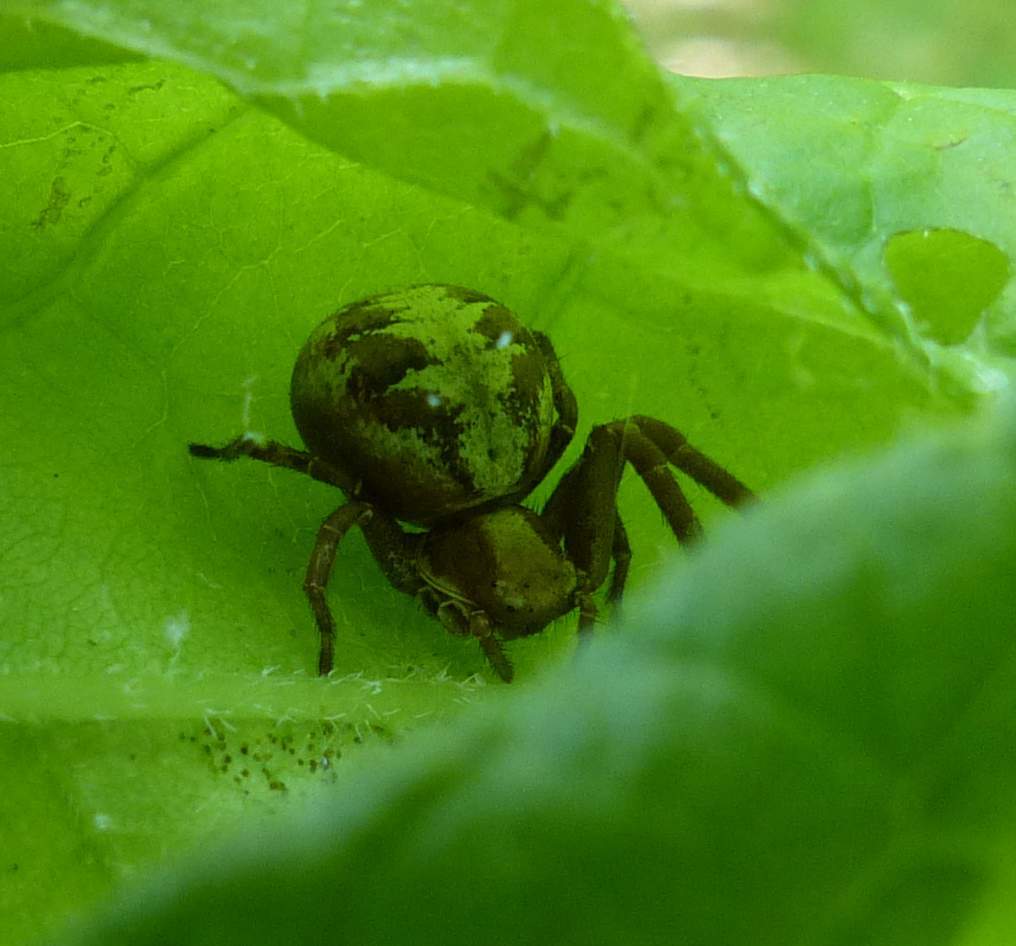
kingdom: Animalia
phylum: Arthropoda
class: Arachnida
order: Araneae
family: Thomisidae
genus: Xysticus
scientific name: Xysticus punctatus
